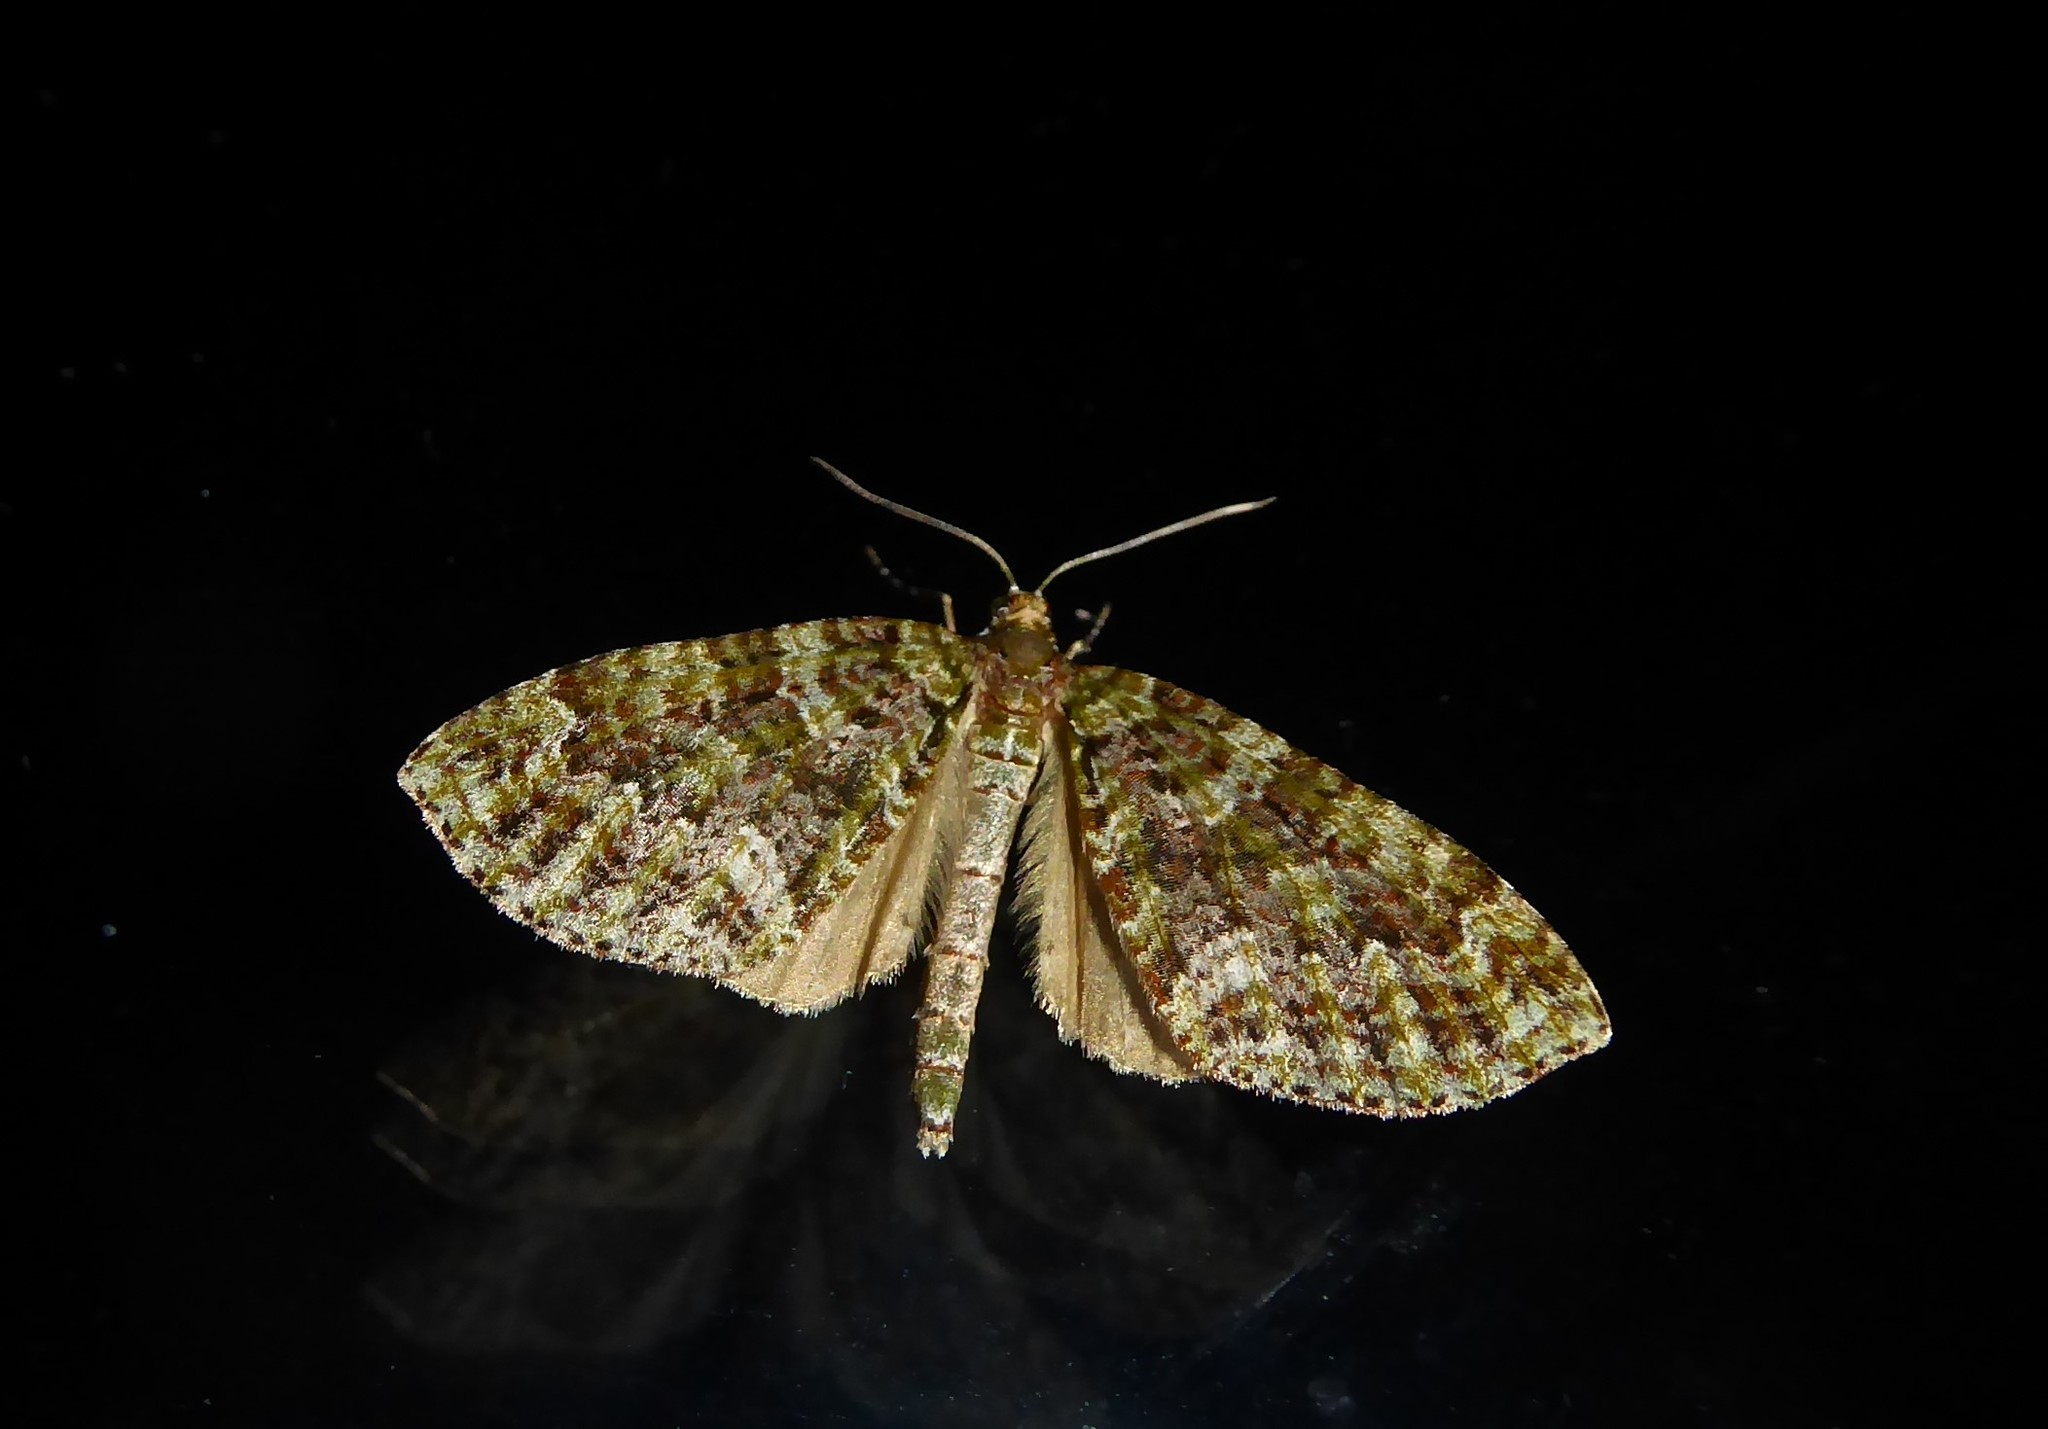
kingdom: Animalia
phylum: Arthropoda
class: Insecta
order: Lepidoptera
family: Geometridae
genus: Tatosoma
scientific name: Tatosoma agrionata
